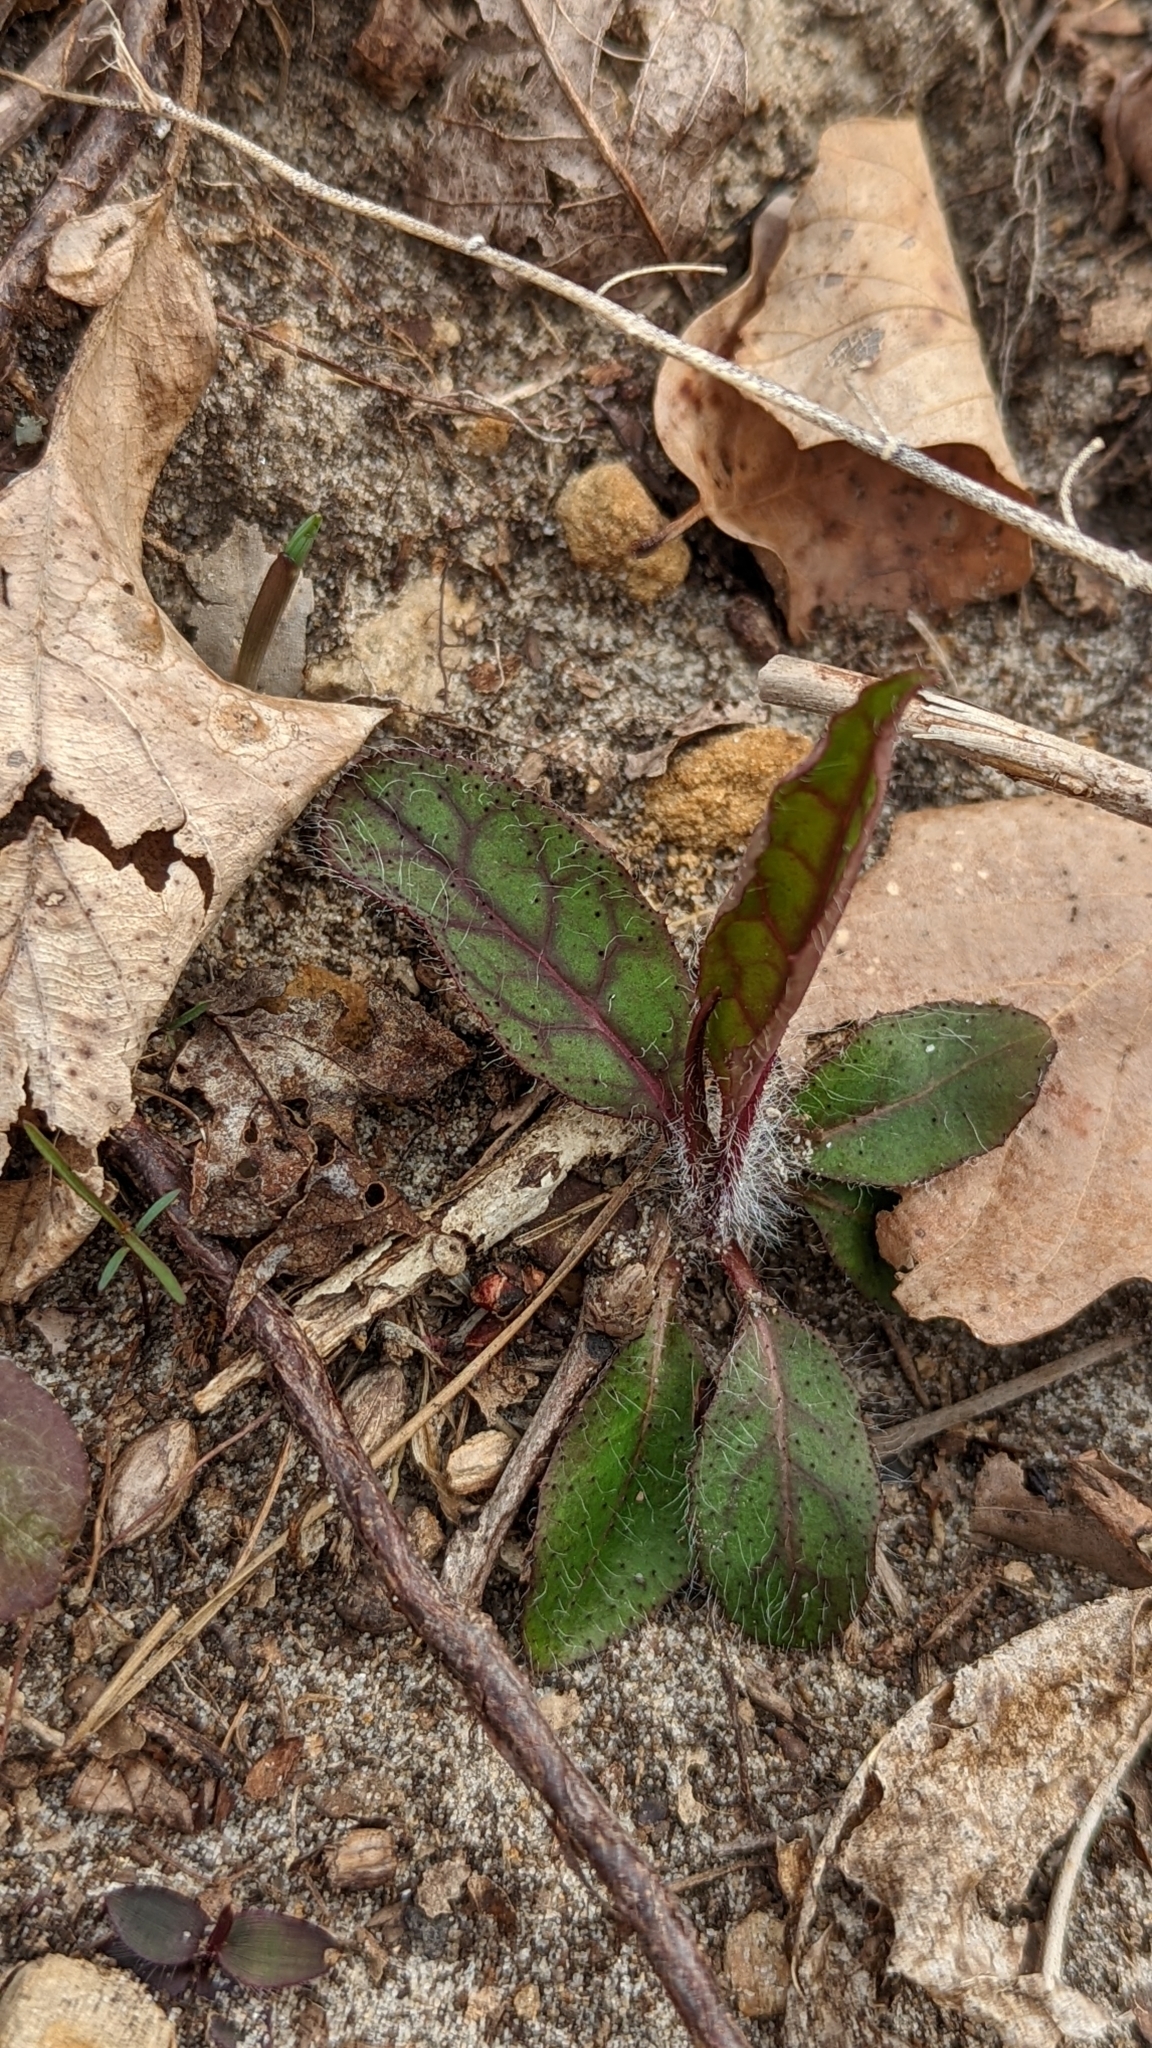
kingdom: Plantae
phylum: Tracheophyta
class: Magnoliopsida
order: Asterales
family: Asteraceae
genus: Hieracium
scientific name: Hieracium venosum
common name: Rattlesnake hawkweed
